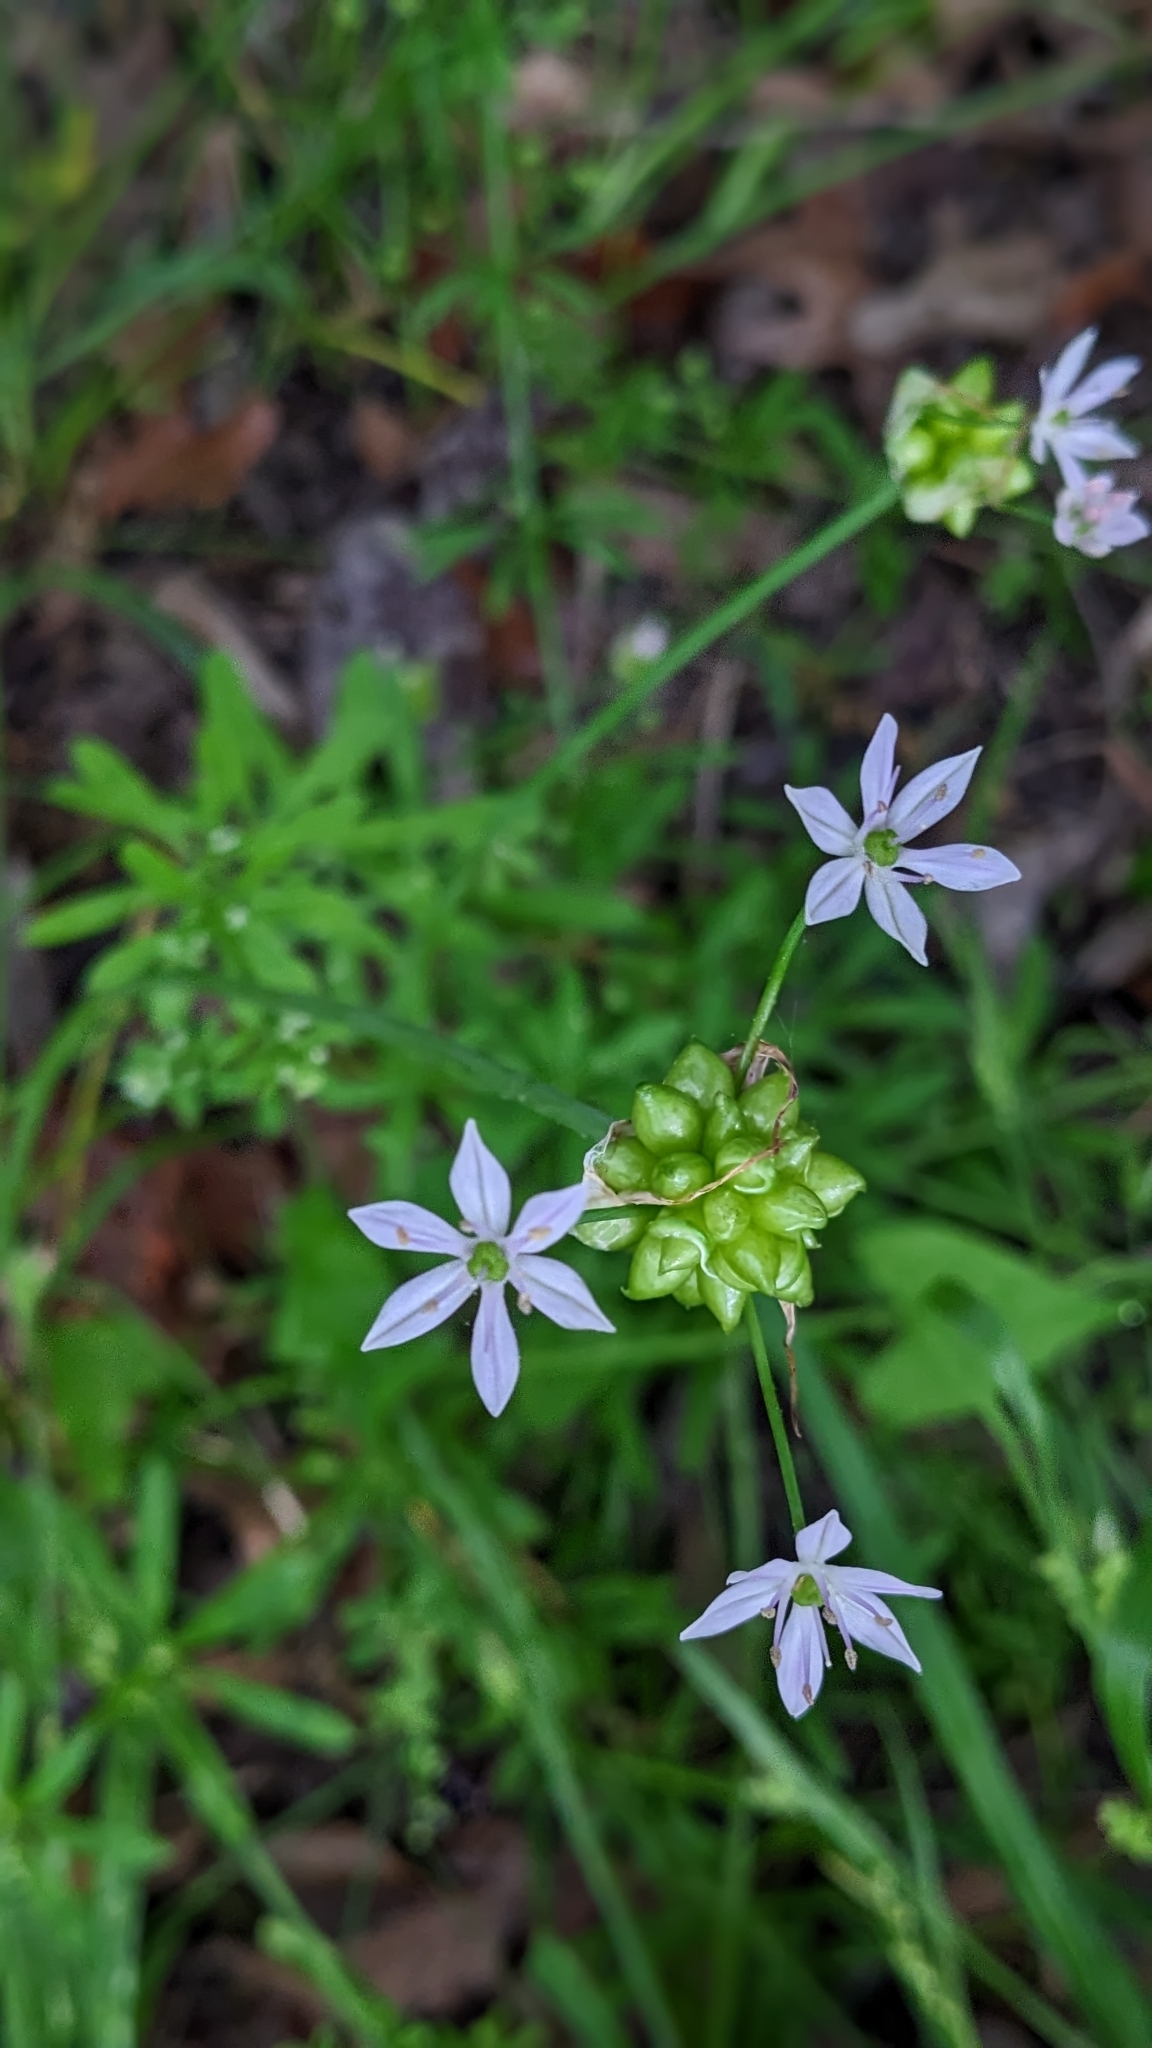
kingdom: Plantae
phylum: Tracheophyta
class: Liliopsida
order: Asparagales
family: Amaryllidaceae
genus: Allium
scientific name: Allium canadense
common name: Meadow garlic
